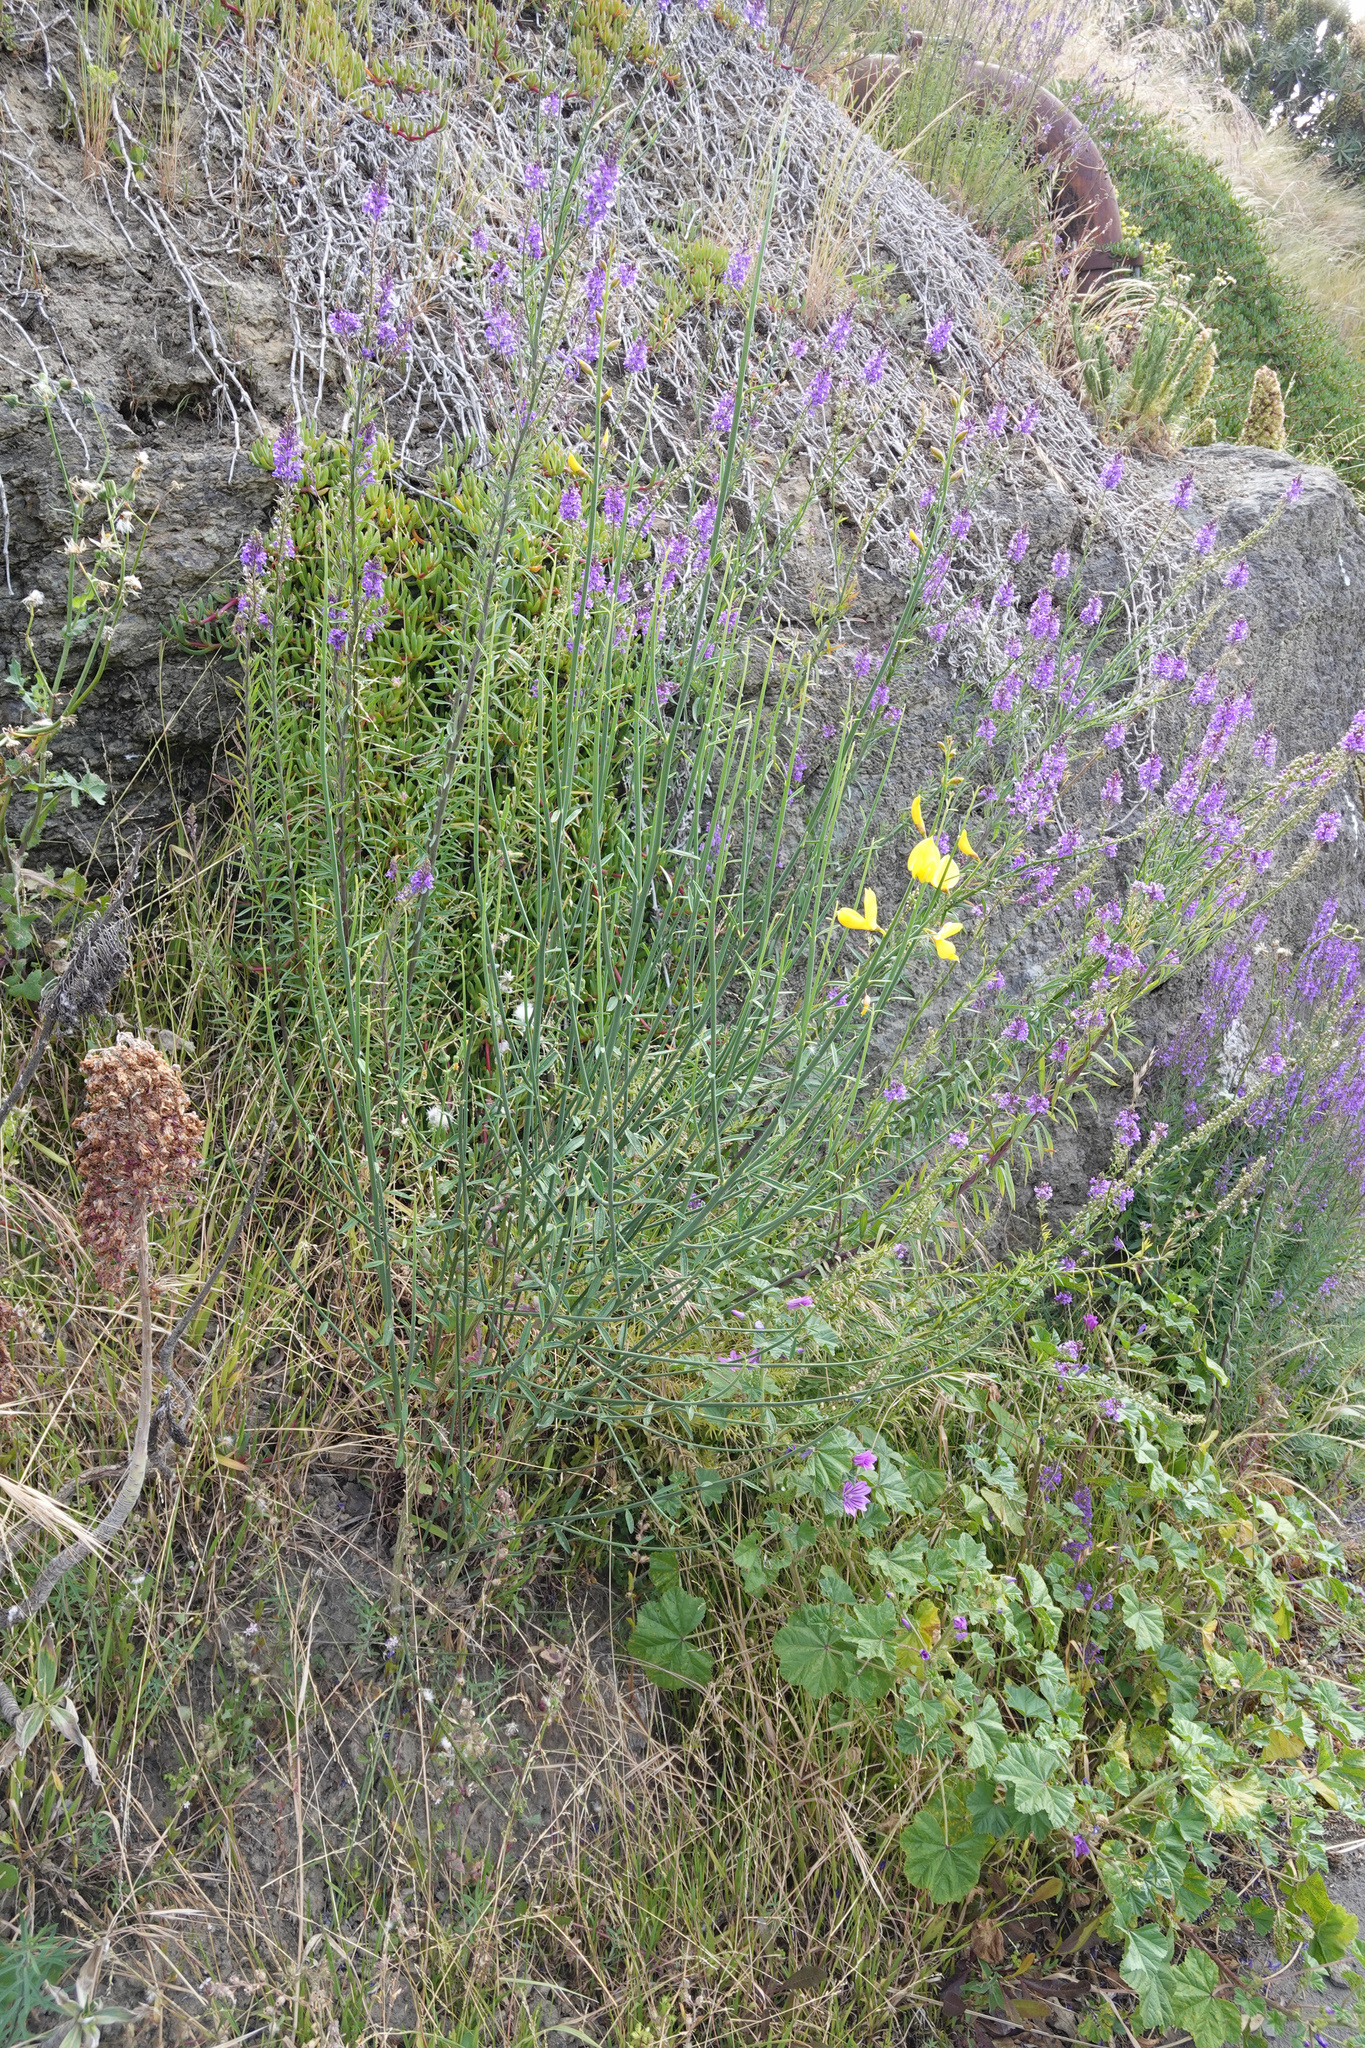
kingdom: Plantae
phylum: Tracheophyta
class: Magnoliopsida
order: Fabales
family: Fabaceae
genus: Spartium
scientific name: Spartium junceum
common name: Spanish broom
